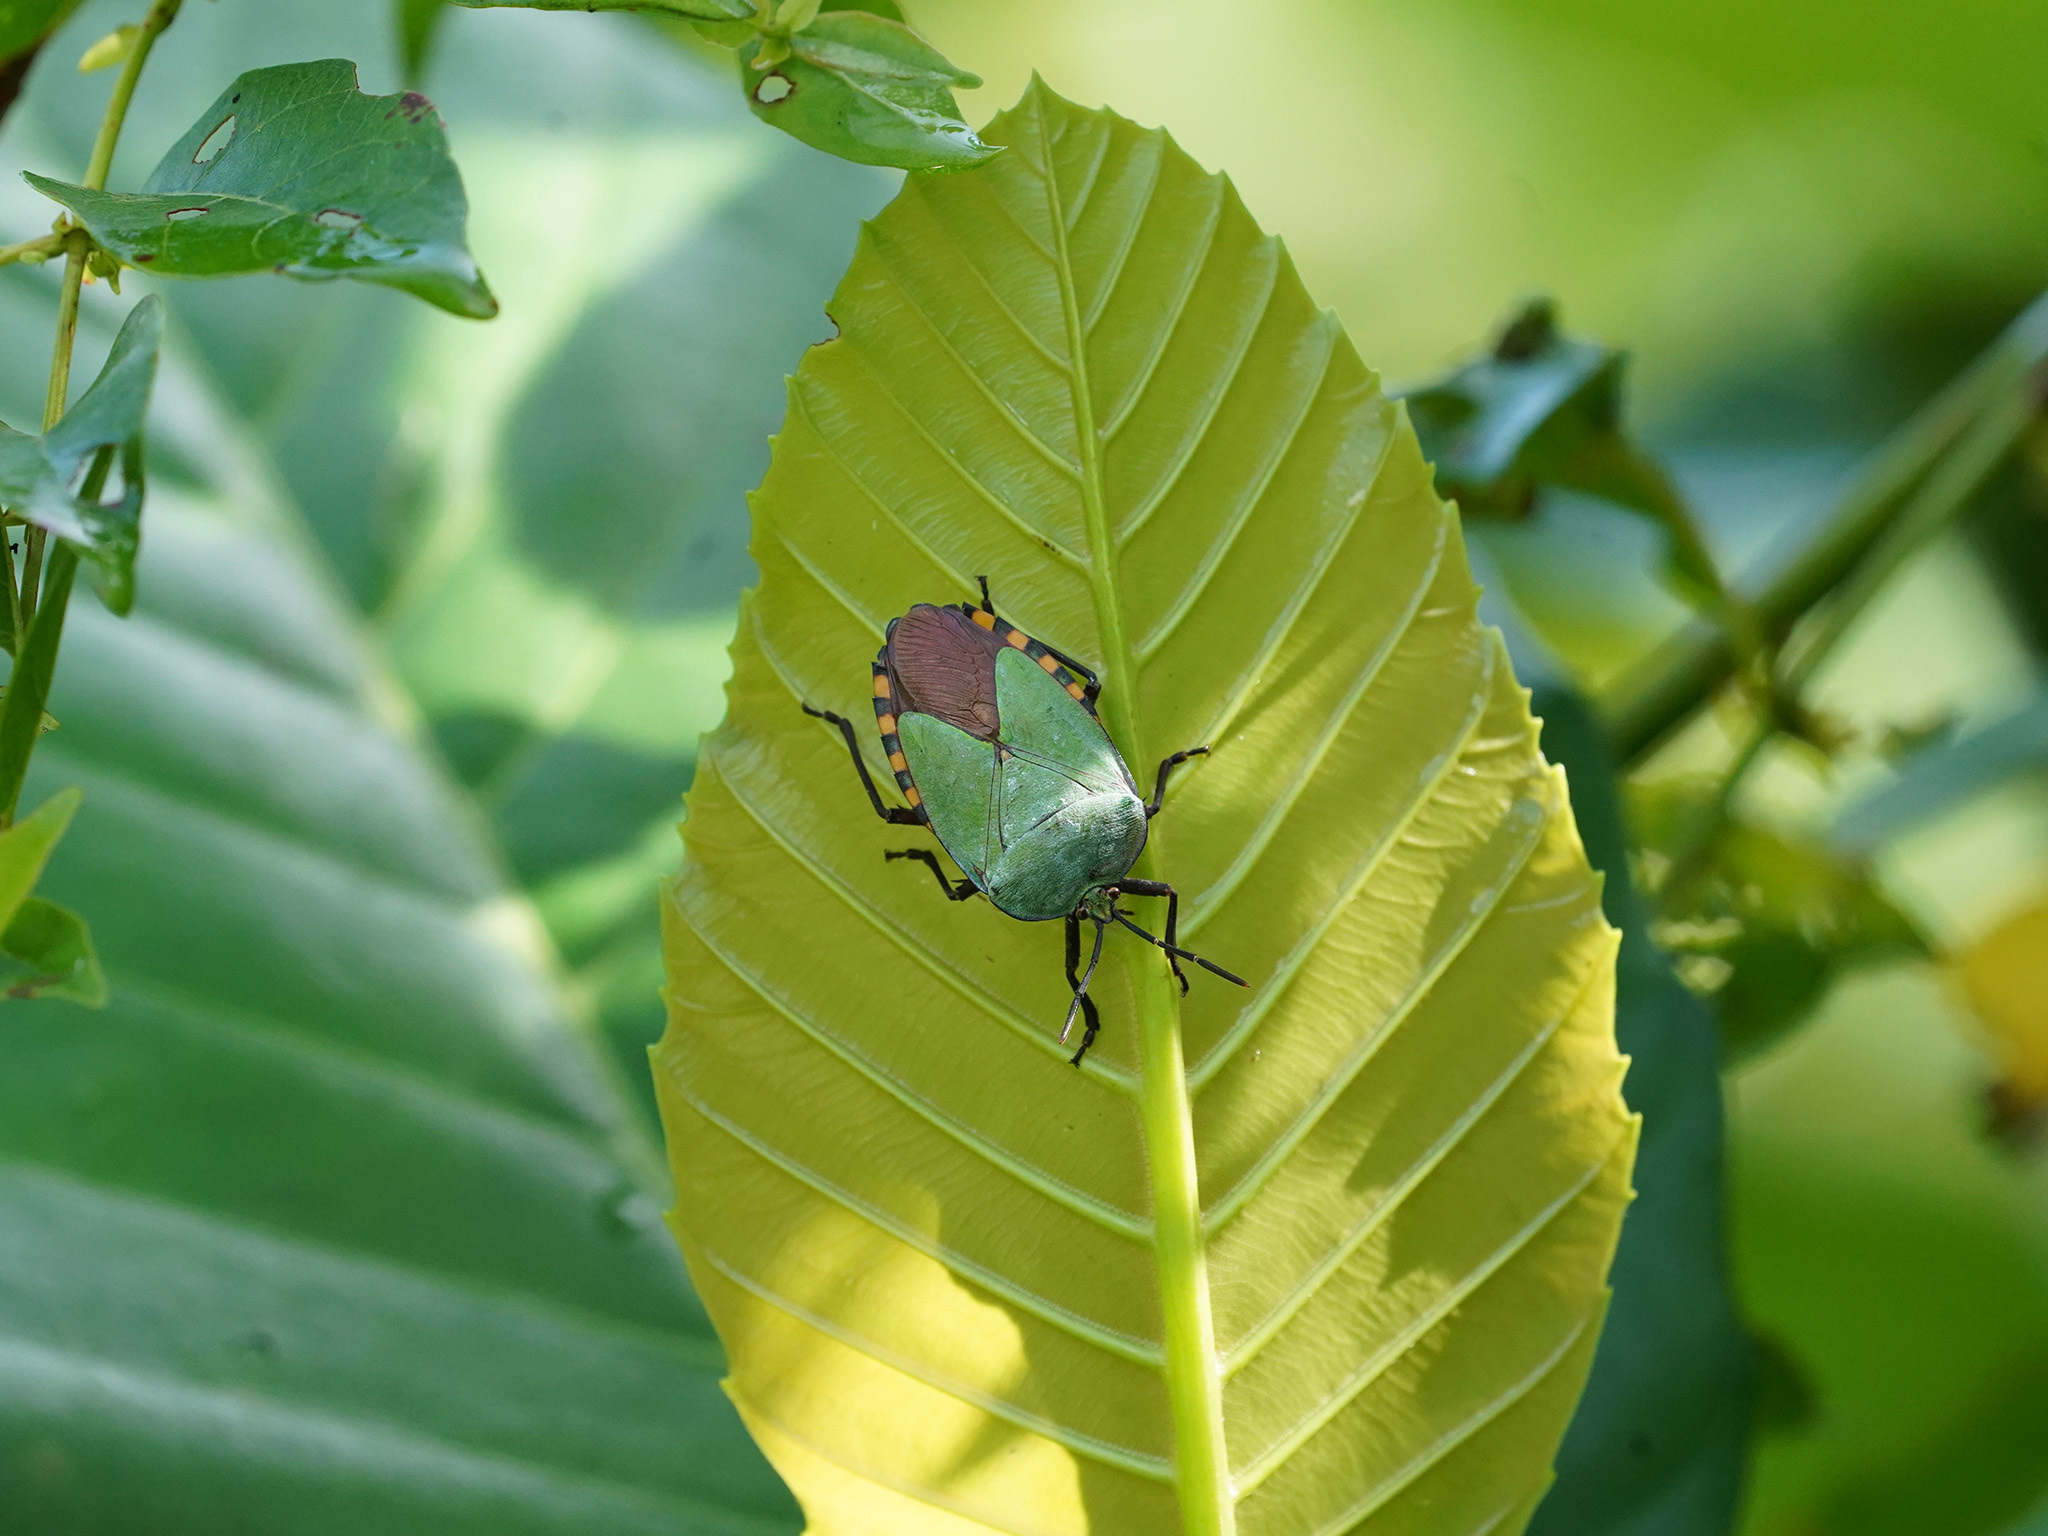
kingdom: Animalia
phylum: Arthropoda
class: Insecta
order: Hemiptera
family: Tessaratomidae
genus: Pycanum
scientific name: Pycanum alternatum
